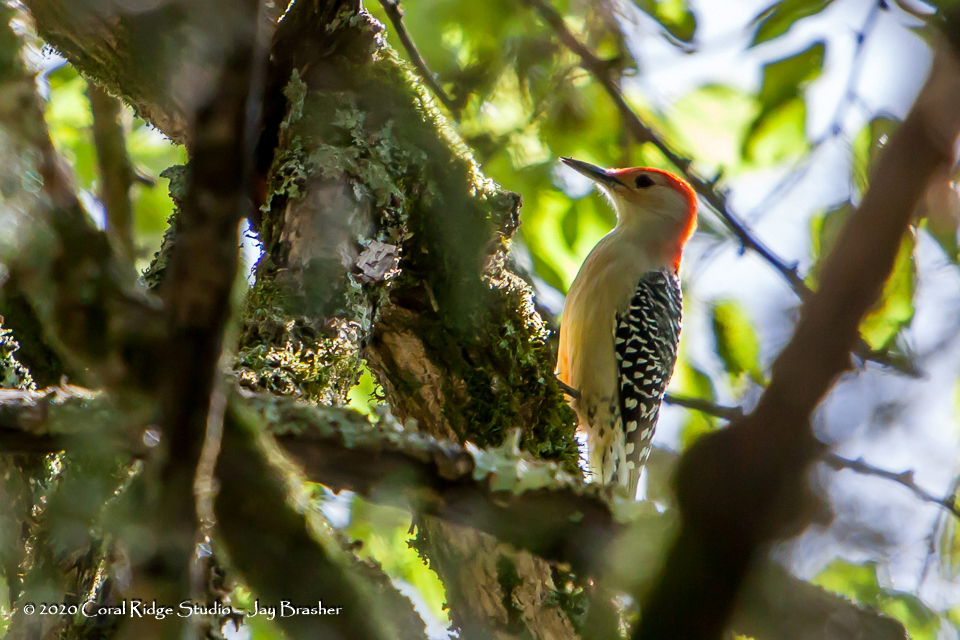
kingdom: Animalia
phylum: Chordata
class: Aves
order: Piciformes
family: Picidae
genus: Melanerpes
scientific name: Melanerpes carolinus
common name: Red-bellied woodpecker
